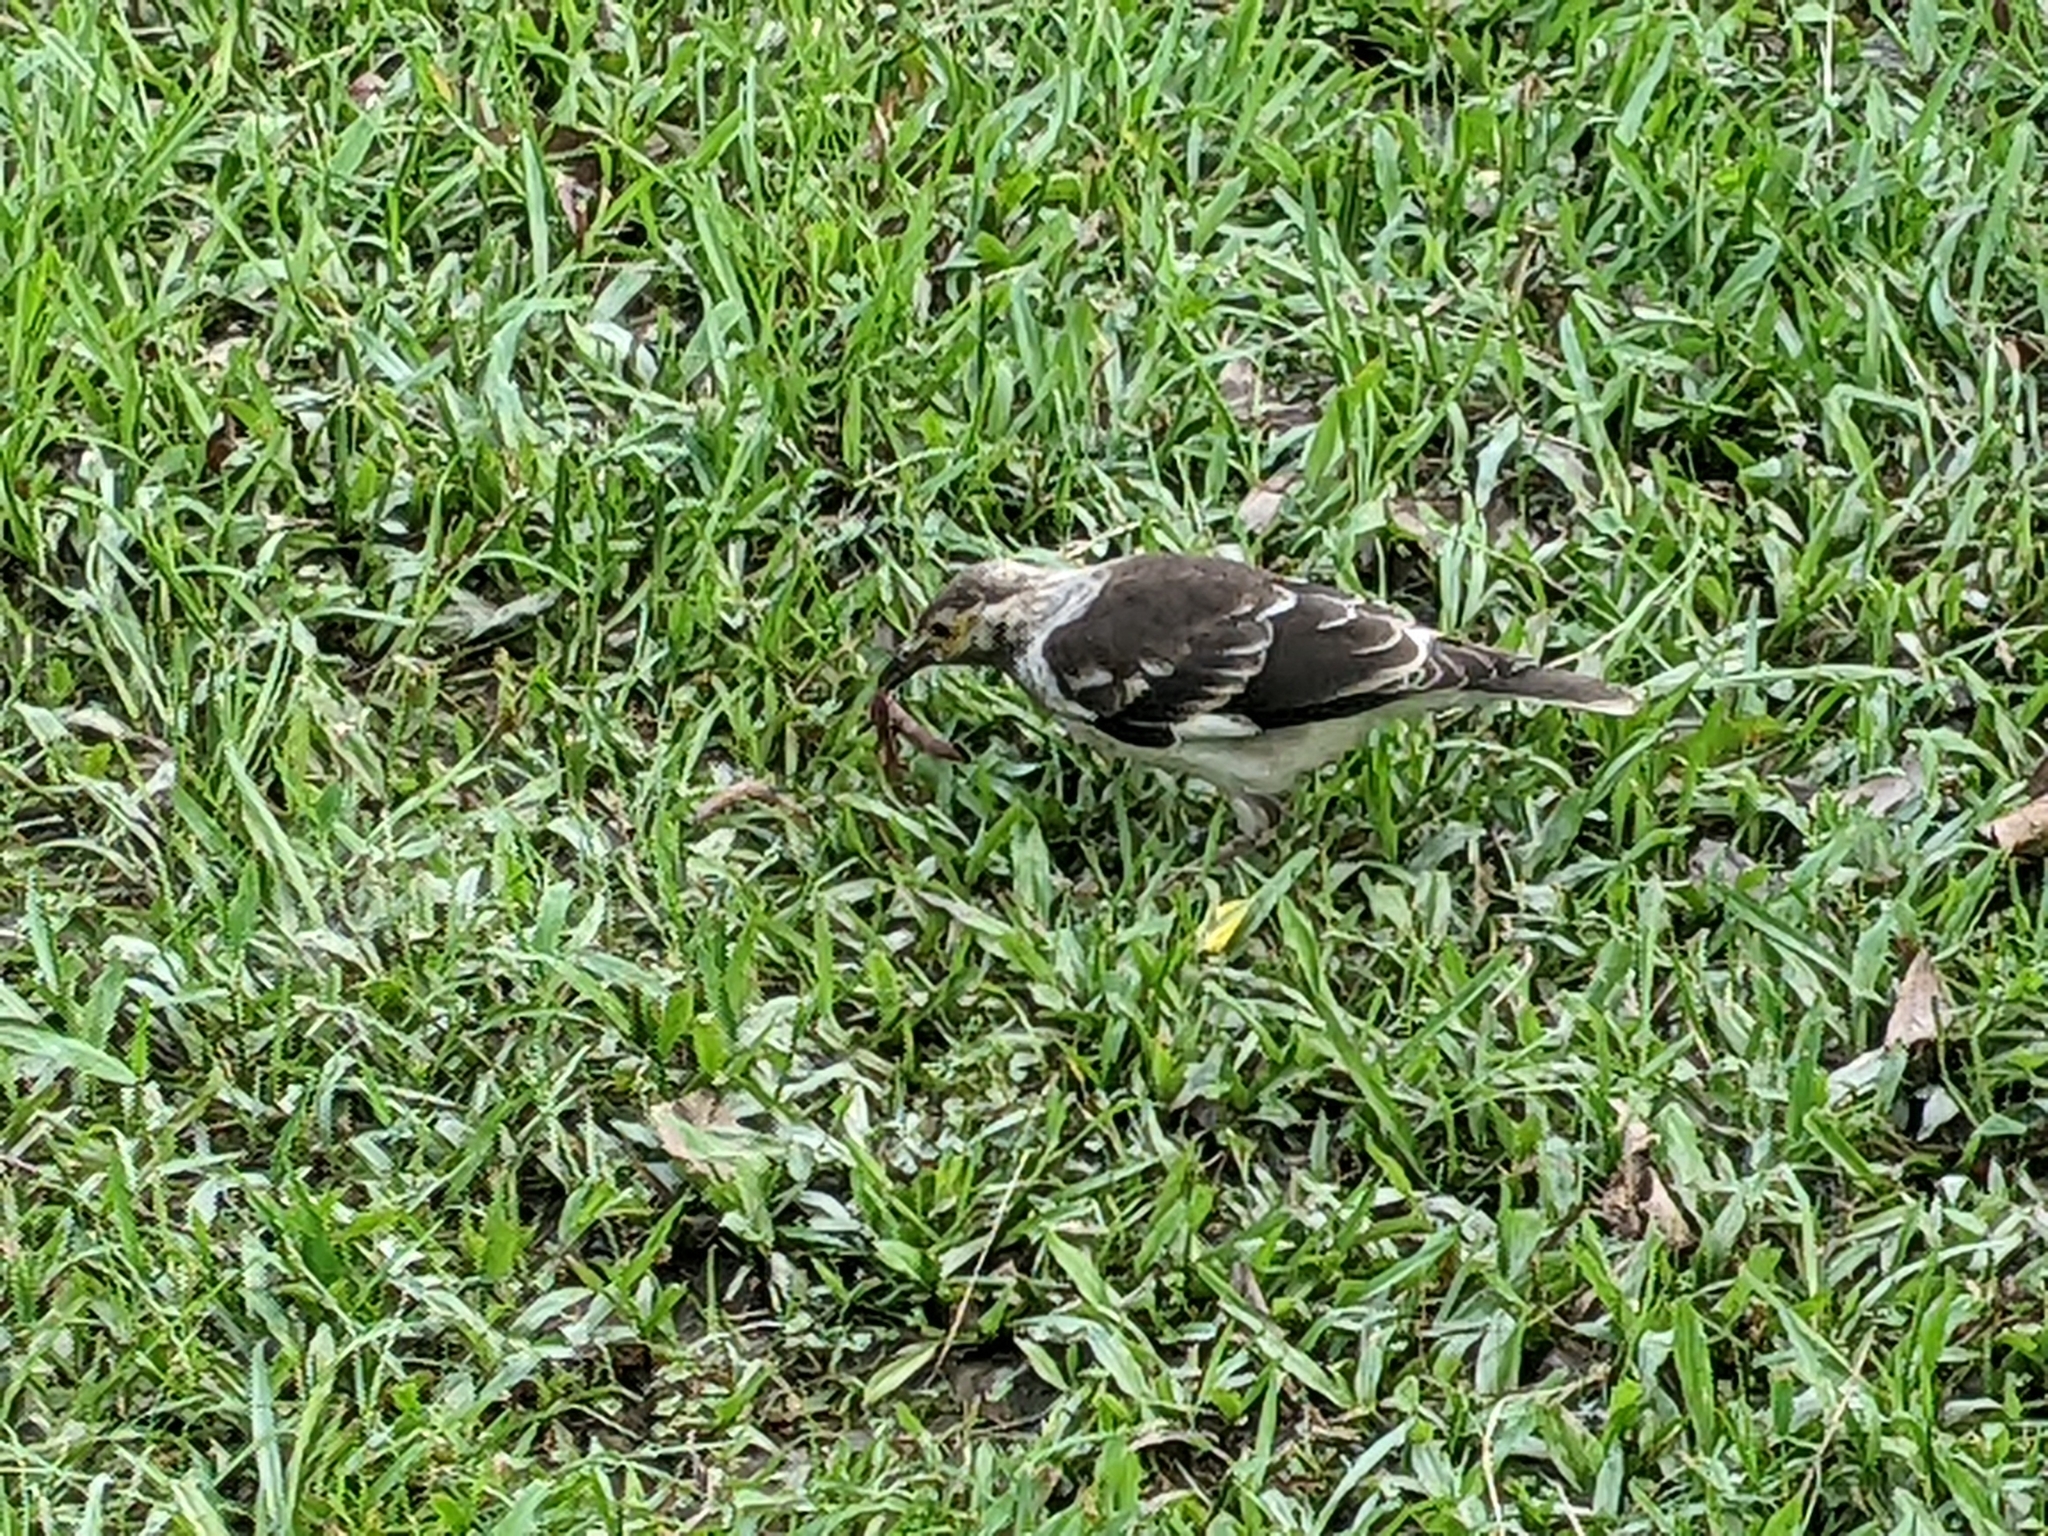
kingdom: Animalia
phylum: Chordata
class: Aves
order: Passeriformes
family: Sturnidae
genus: Gracupica
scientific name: Gracupica nigricollis
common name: Black-collared starling
